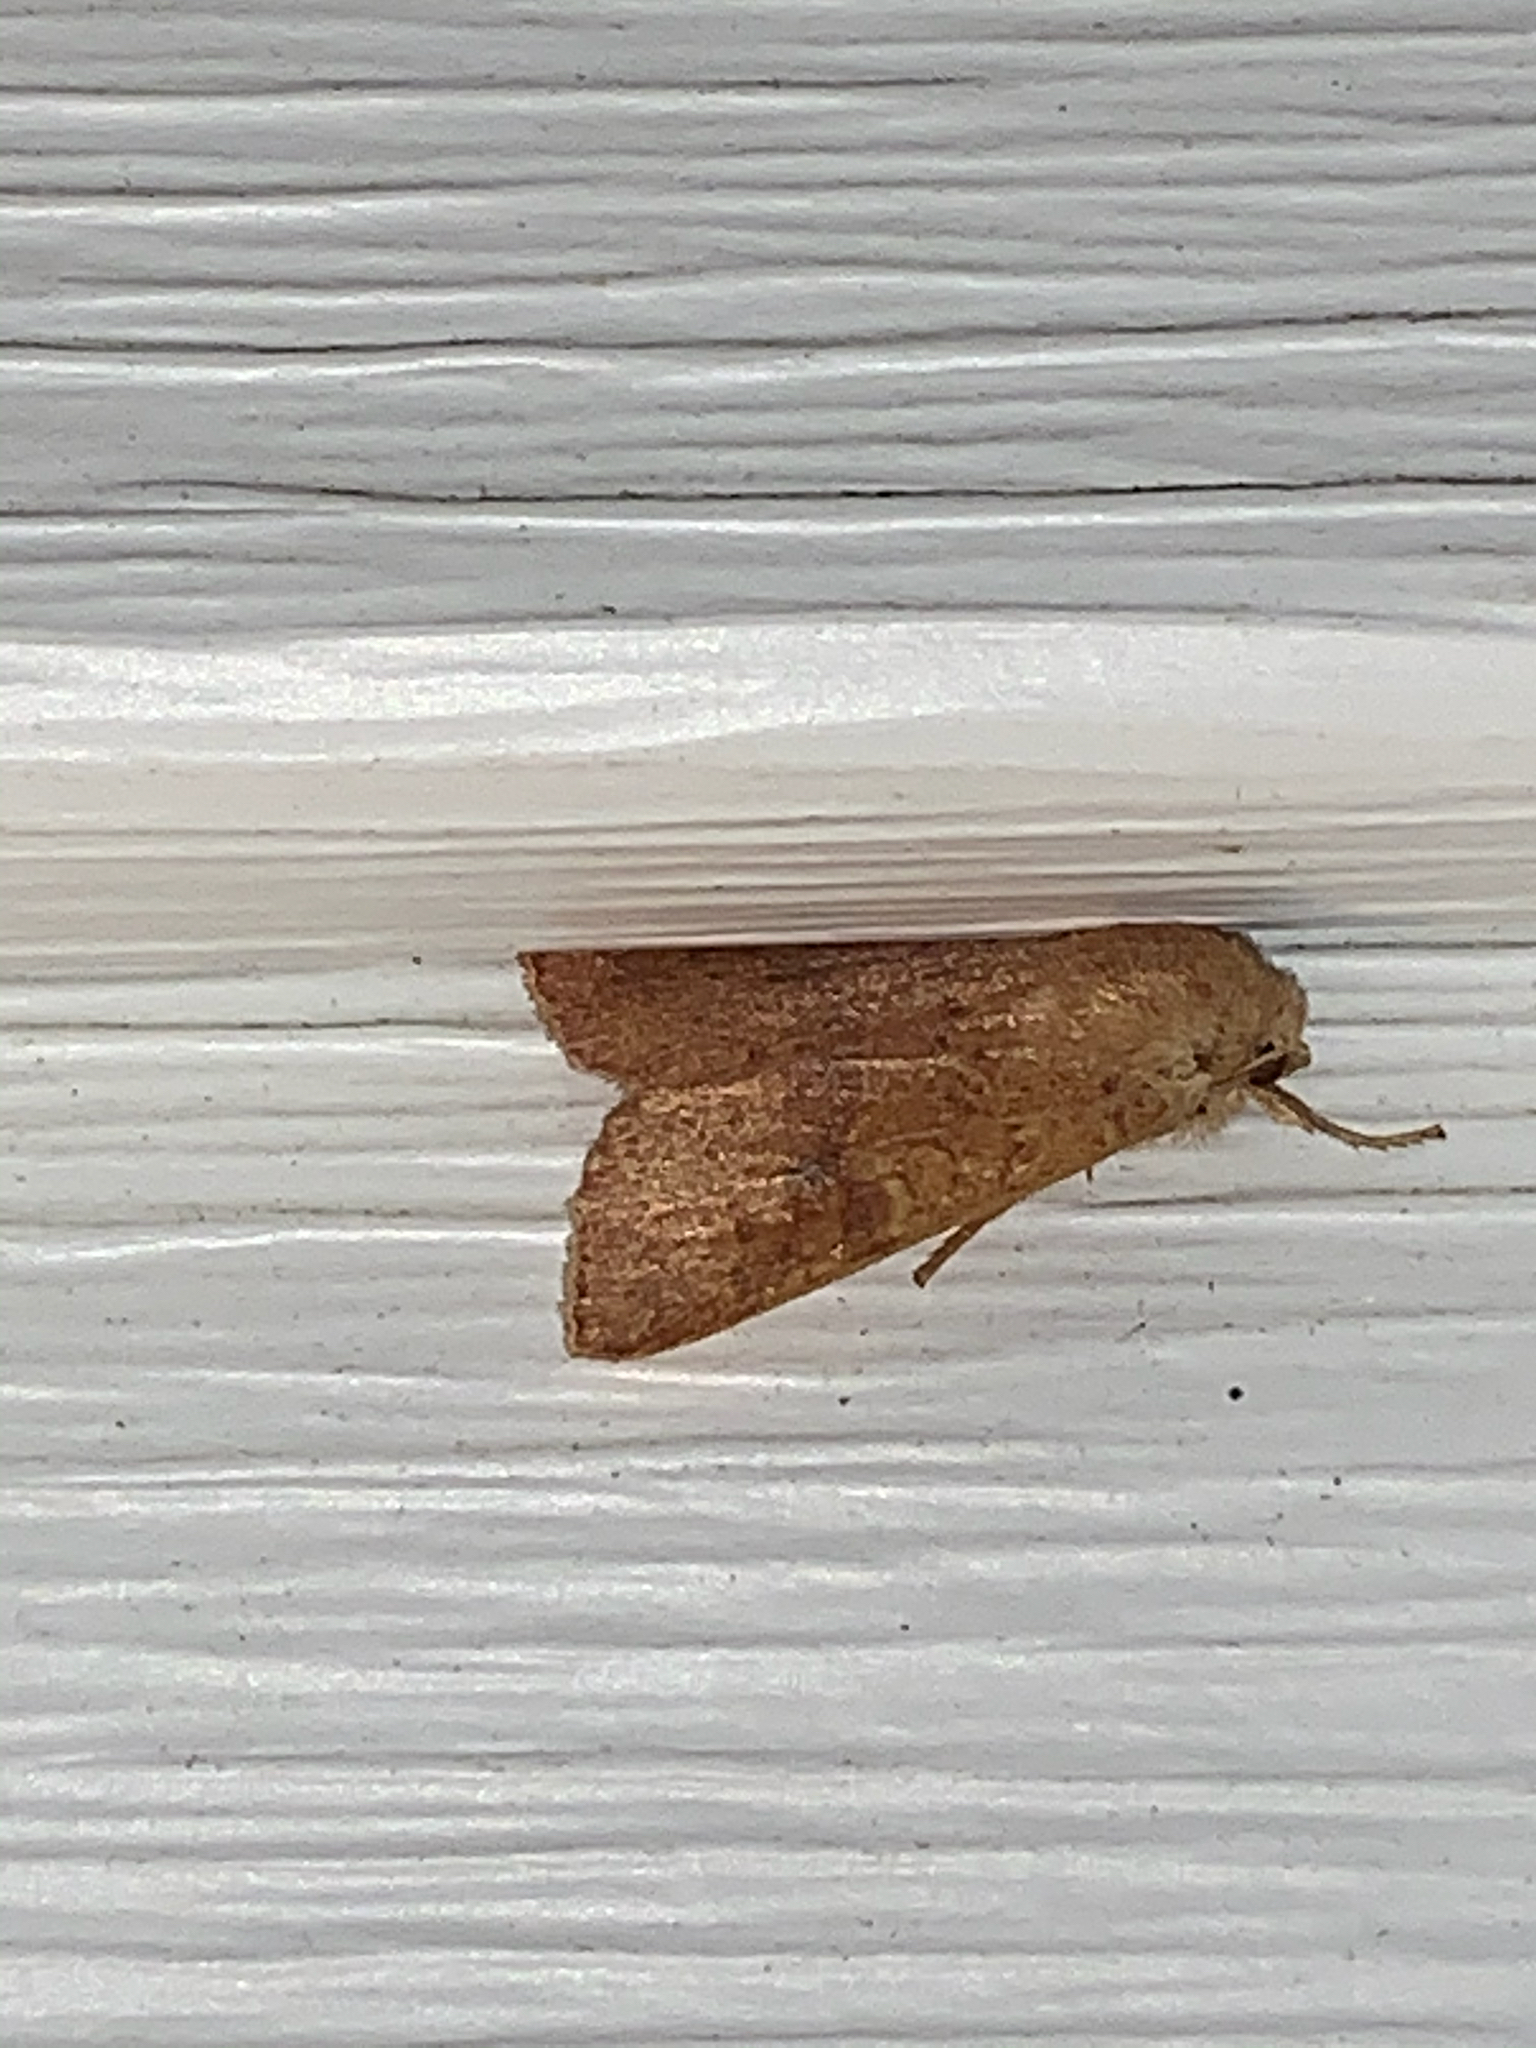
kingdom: Animalia
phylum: Arthropoda
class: Insecta
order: Lepidoptera
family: Noctuidae
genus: Agrochola
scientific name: Agrochola bicolorago
